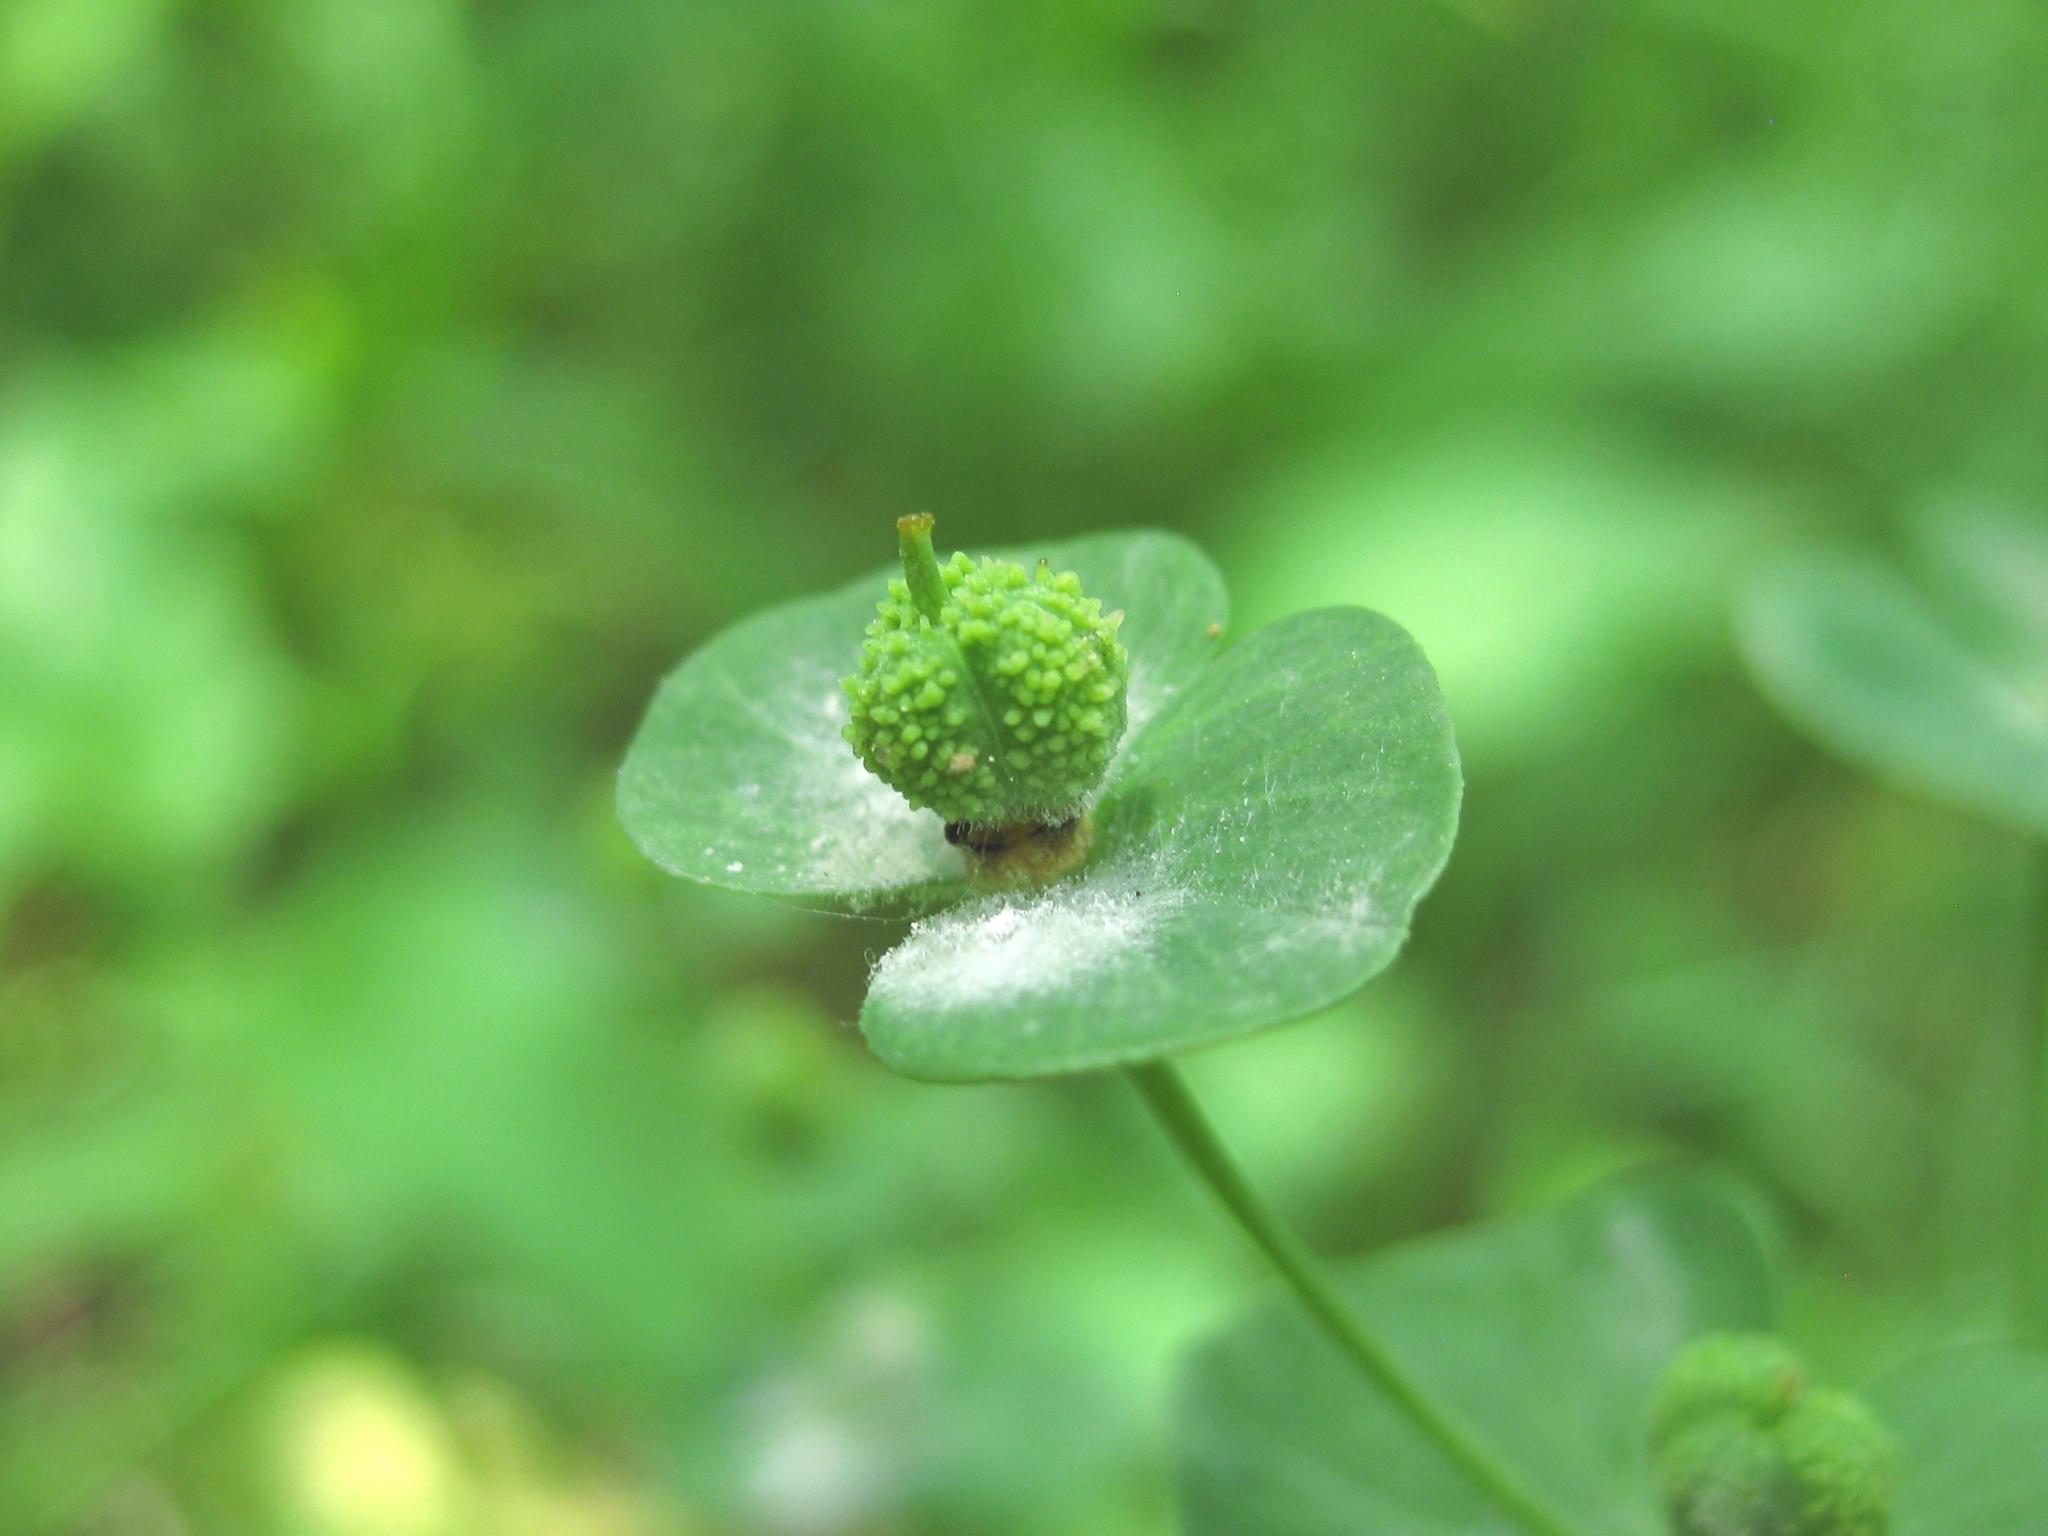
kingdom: Plantae
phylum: Tracheophyta
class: Magnoliopsida
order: Malpighiales
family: Euphorbiaceae
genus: Euphorbia
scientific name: Euphorbia squamosa
